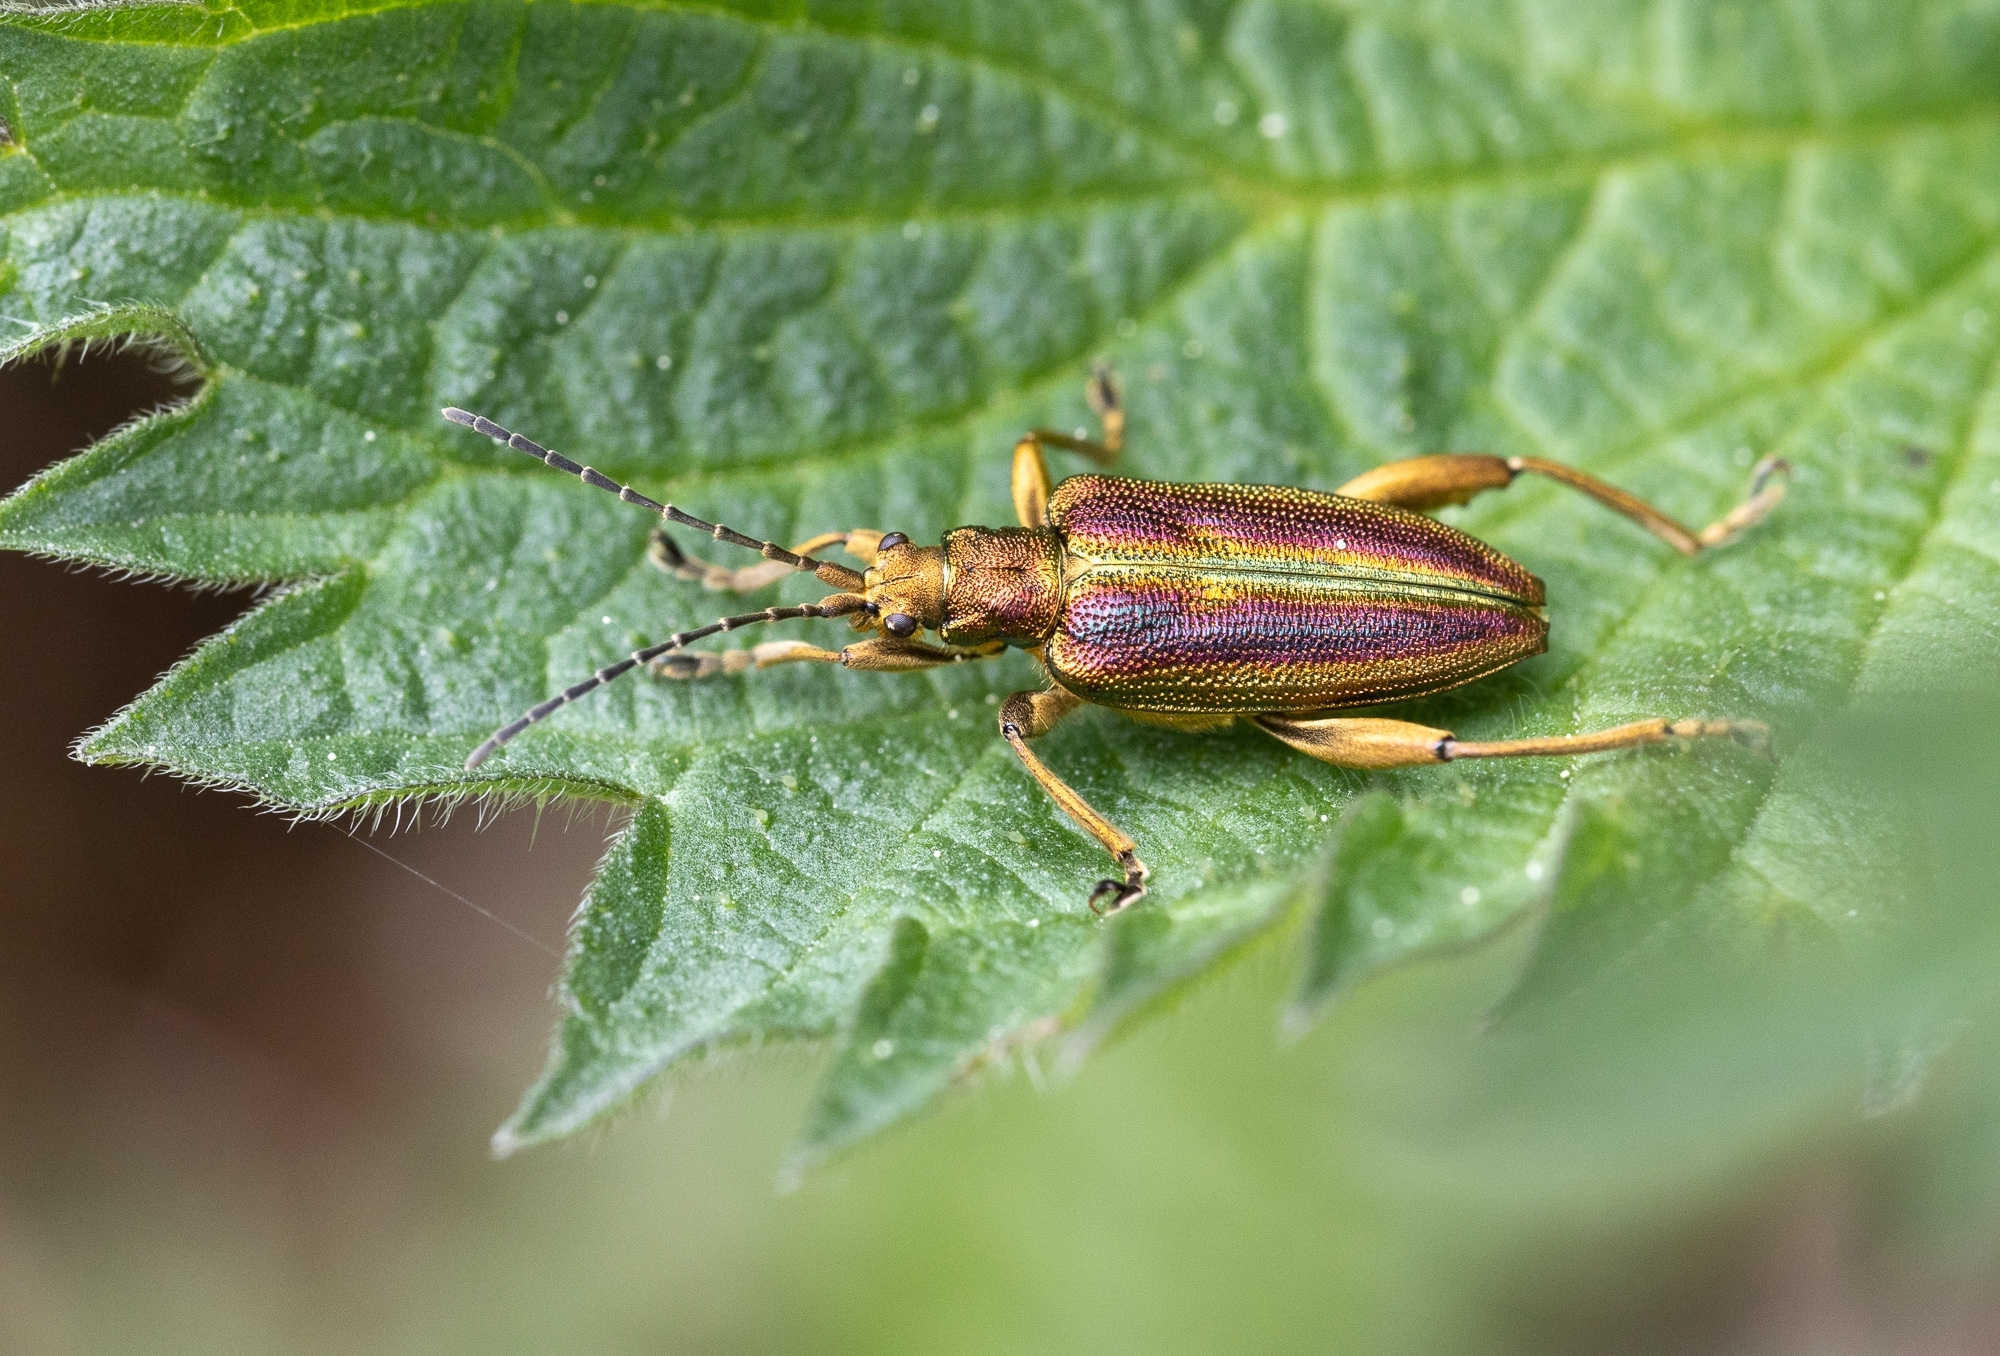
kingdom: Animalia
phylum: Arthropoda
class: Insecta
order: Coleoptera
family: Chrysomelidae
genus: Donacia
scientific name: Donacia aquatica
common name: Zircon reed beetle
